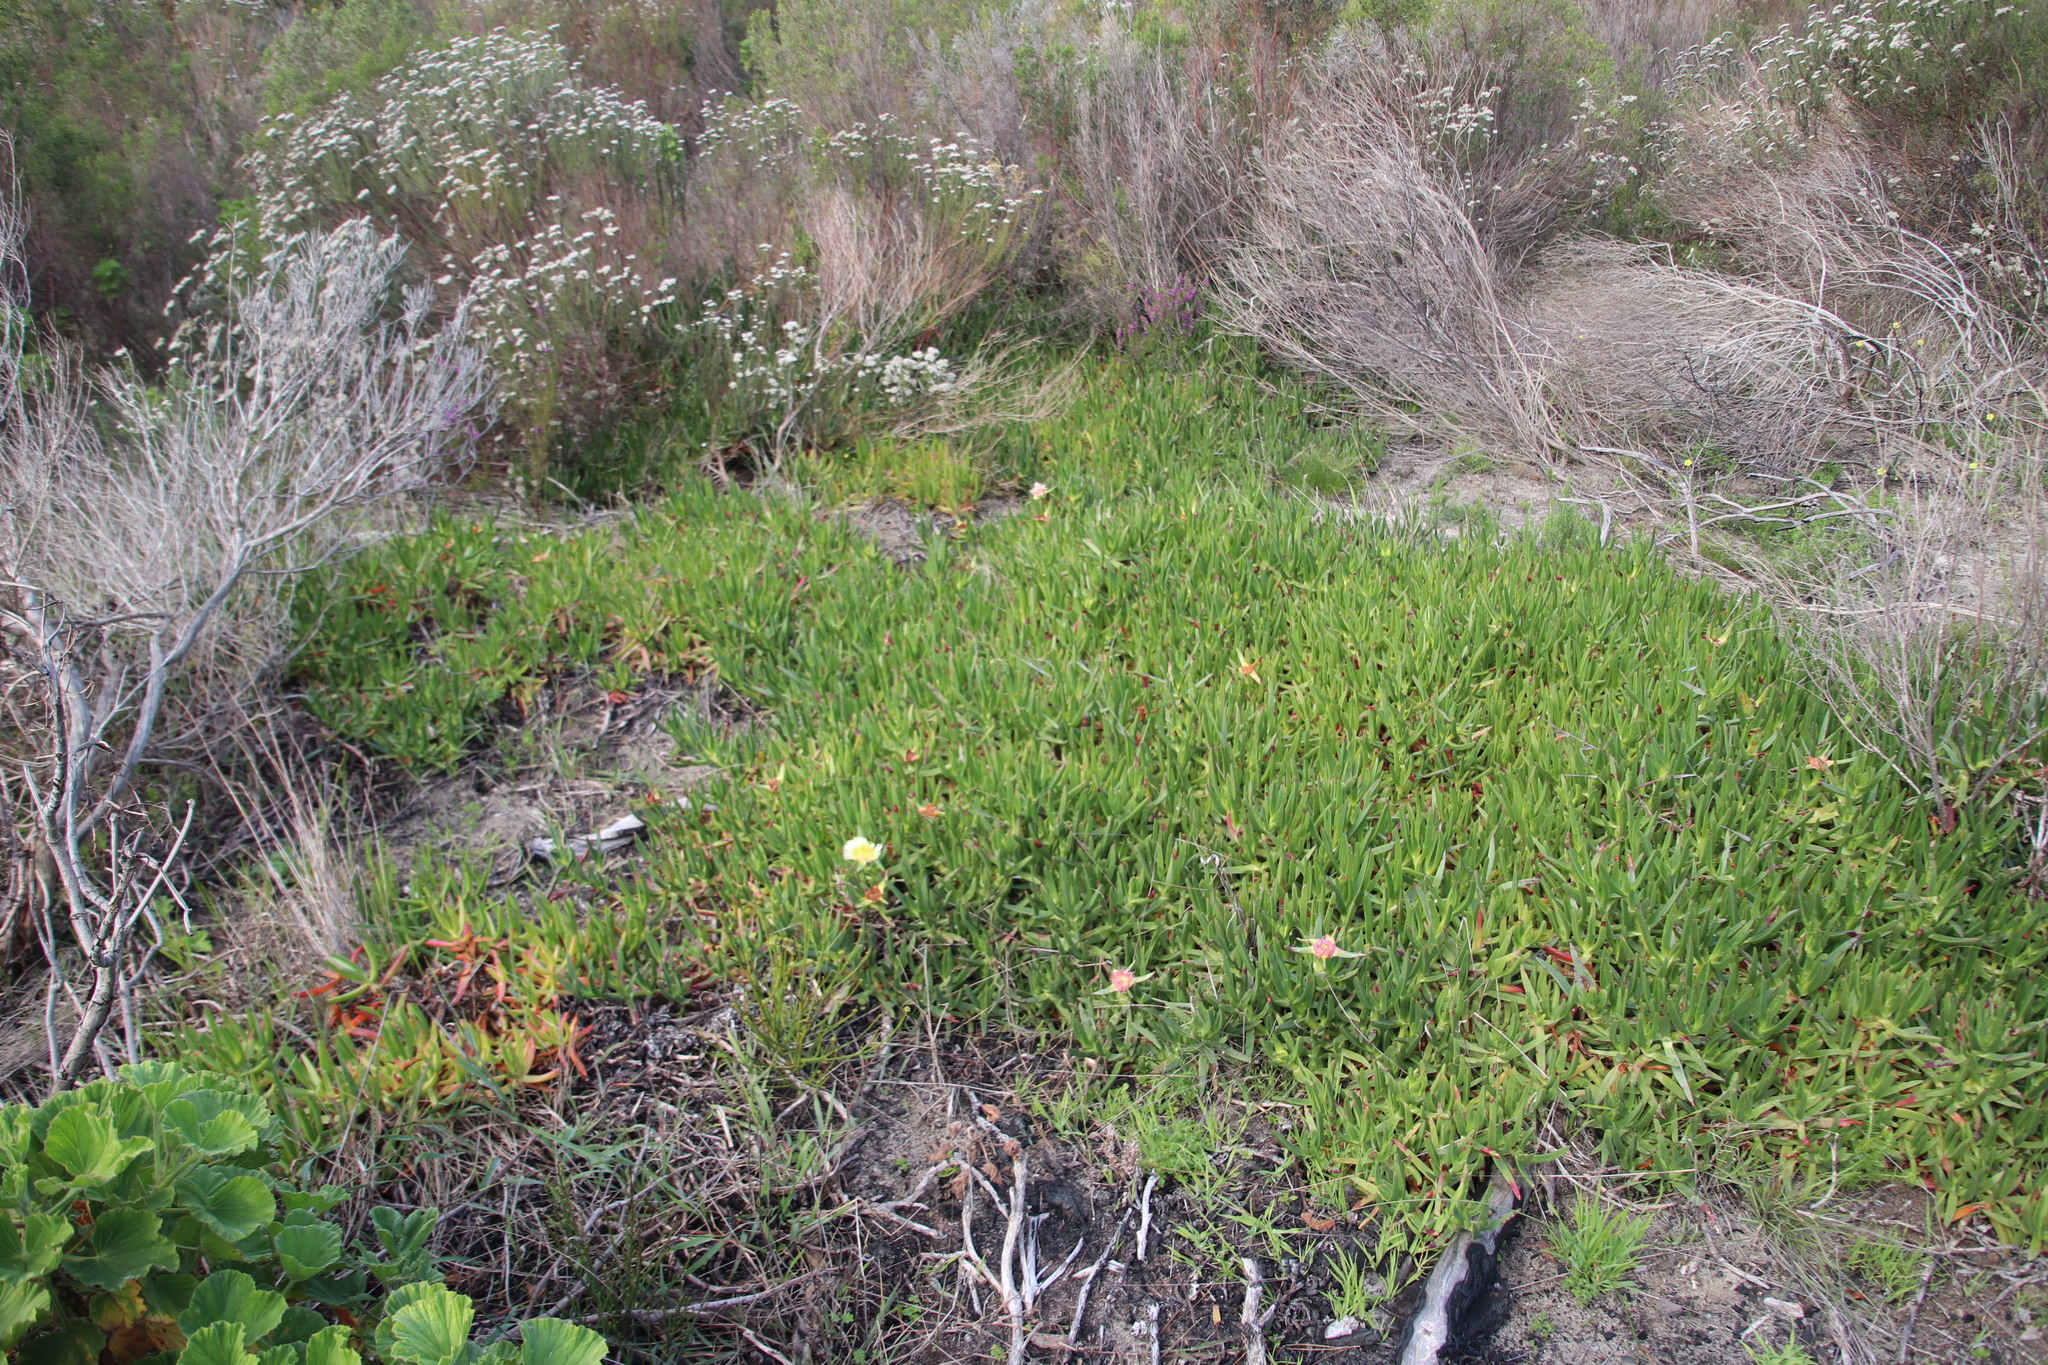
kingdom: Plantae
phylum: Tracheophyta
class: Magnoliopsida
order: Caryophyllales
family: Aizoaceae
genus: Carpobrotus
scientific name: Carpobrotus edulis
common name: Hottentot-fig
